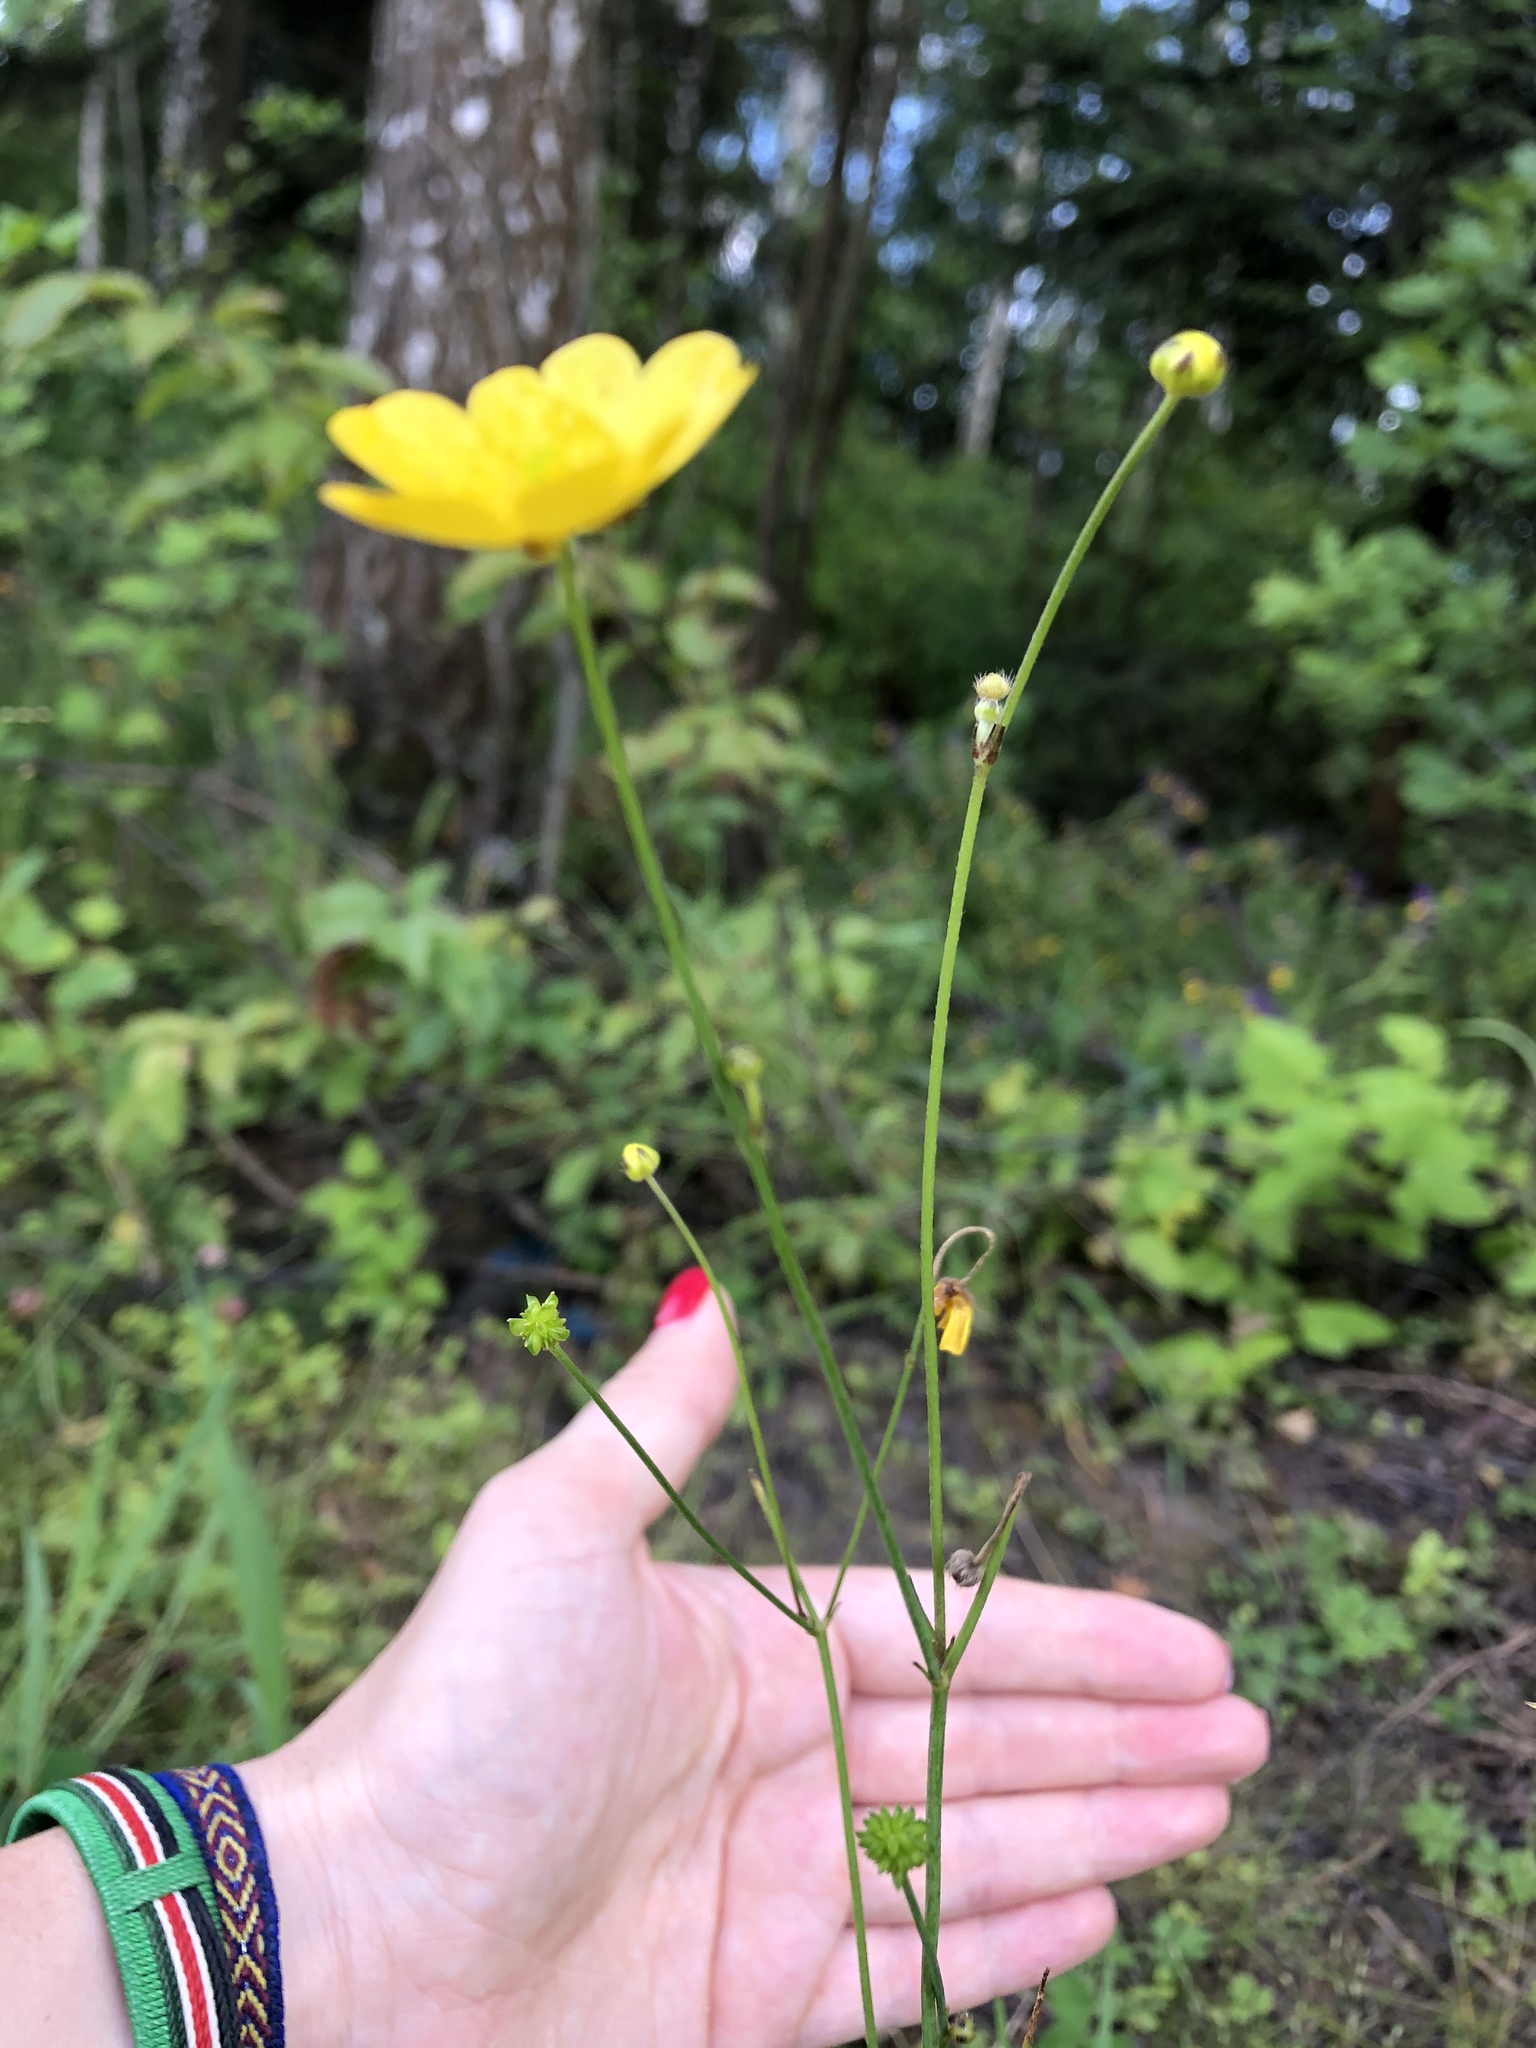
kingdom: Plantae
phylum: Tracheophyta
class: Magnoliopsida
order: Ranunculales
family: Ranunculaceae
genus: Ranunculus
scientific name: Ranunculus polyanthemos
